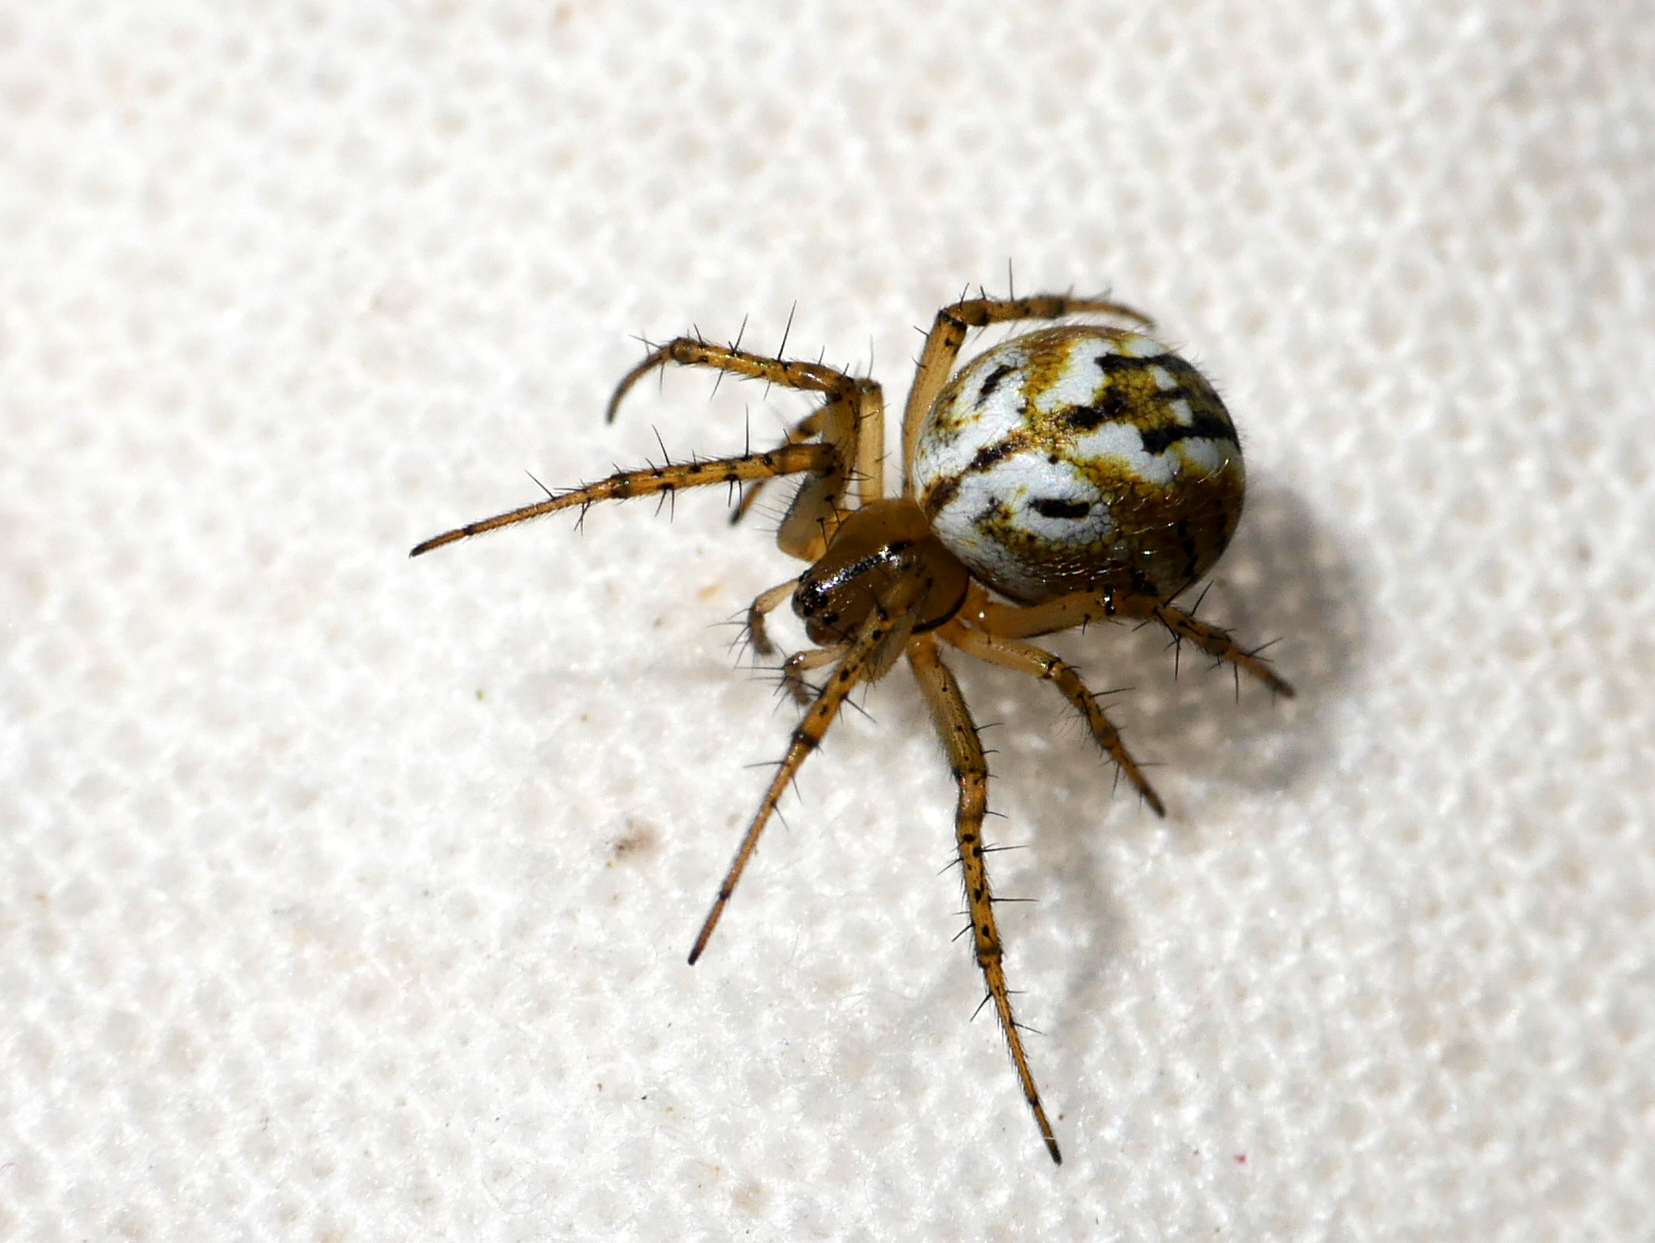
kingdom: Animalia
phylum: Arthropoda
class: Arachnida
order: Araneae
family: Araneidae
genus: Mangora
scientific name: Mangora acalypha
